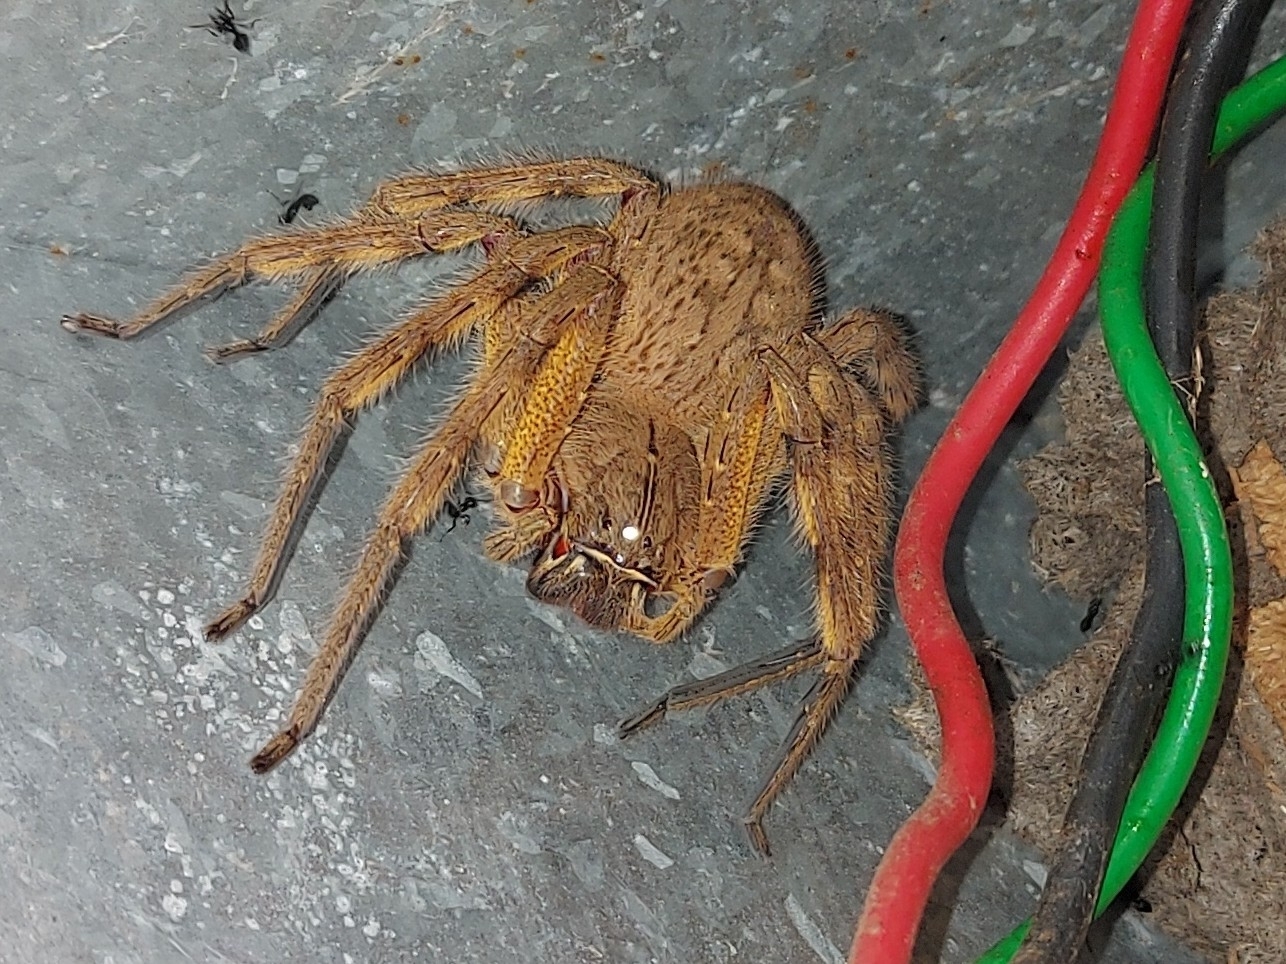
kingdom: Animalia
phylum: Arthropoda
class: Arachnida
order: Araneae
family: Sparassidae
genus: Palystes
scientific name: Palystes martinfilmeri
